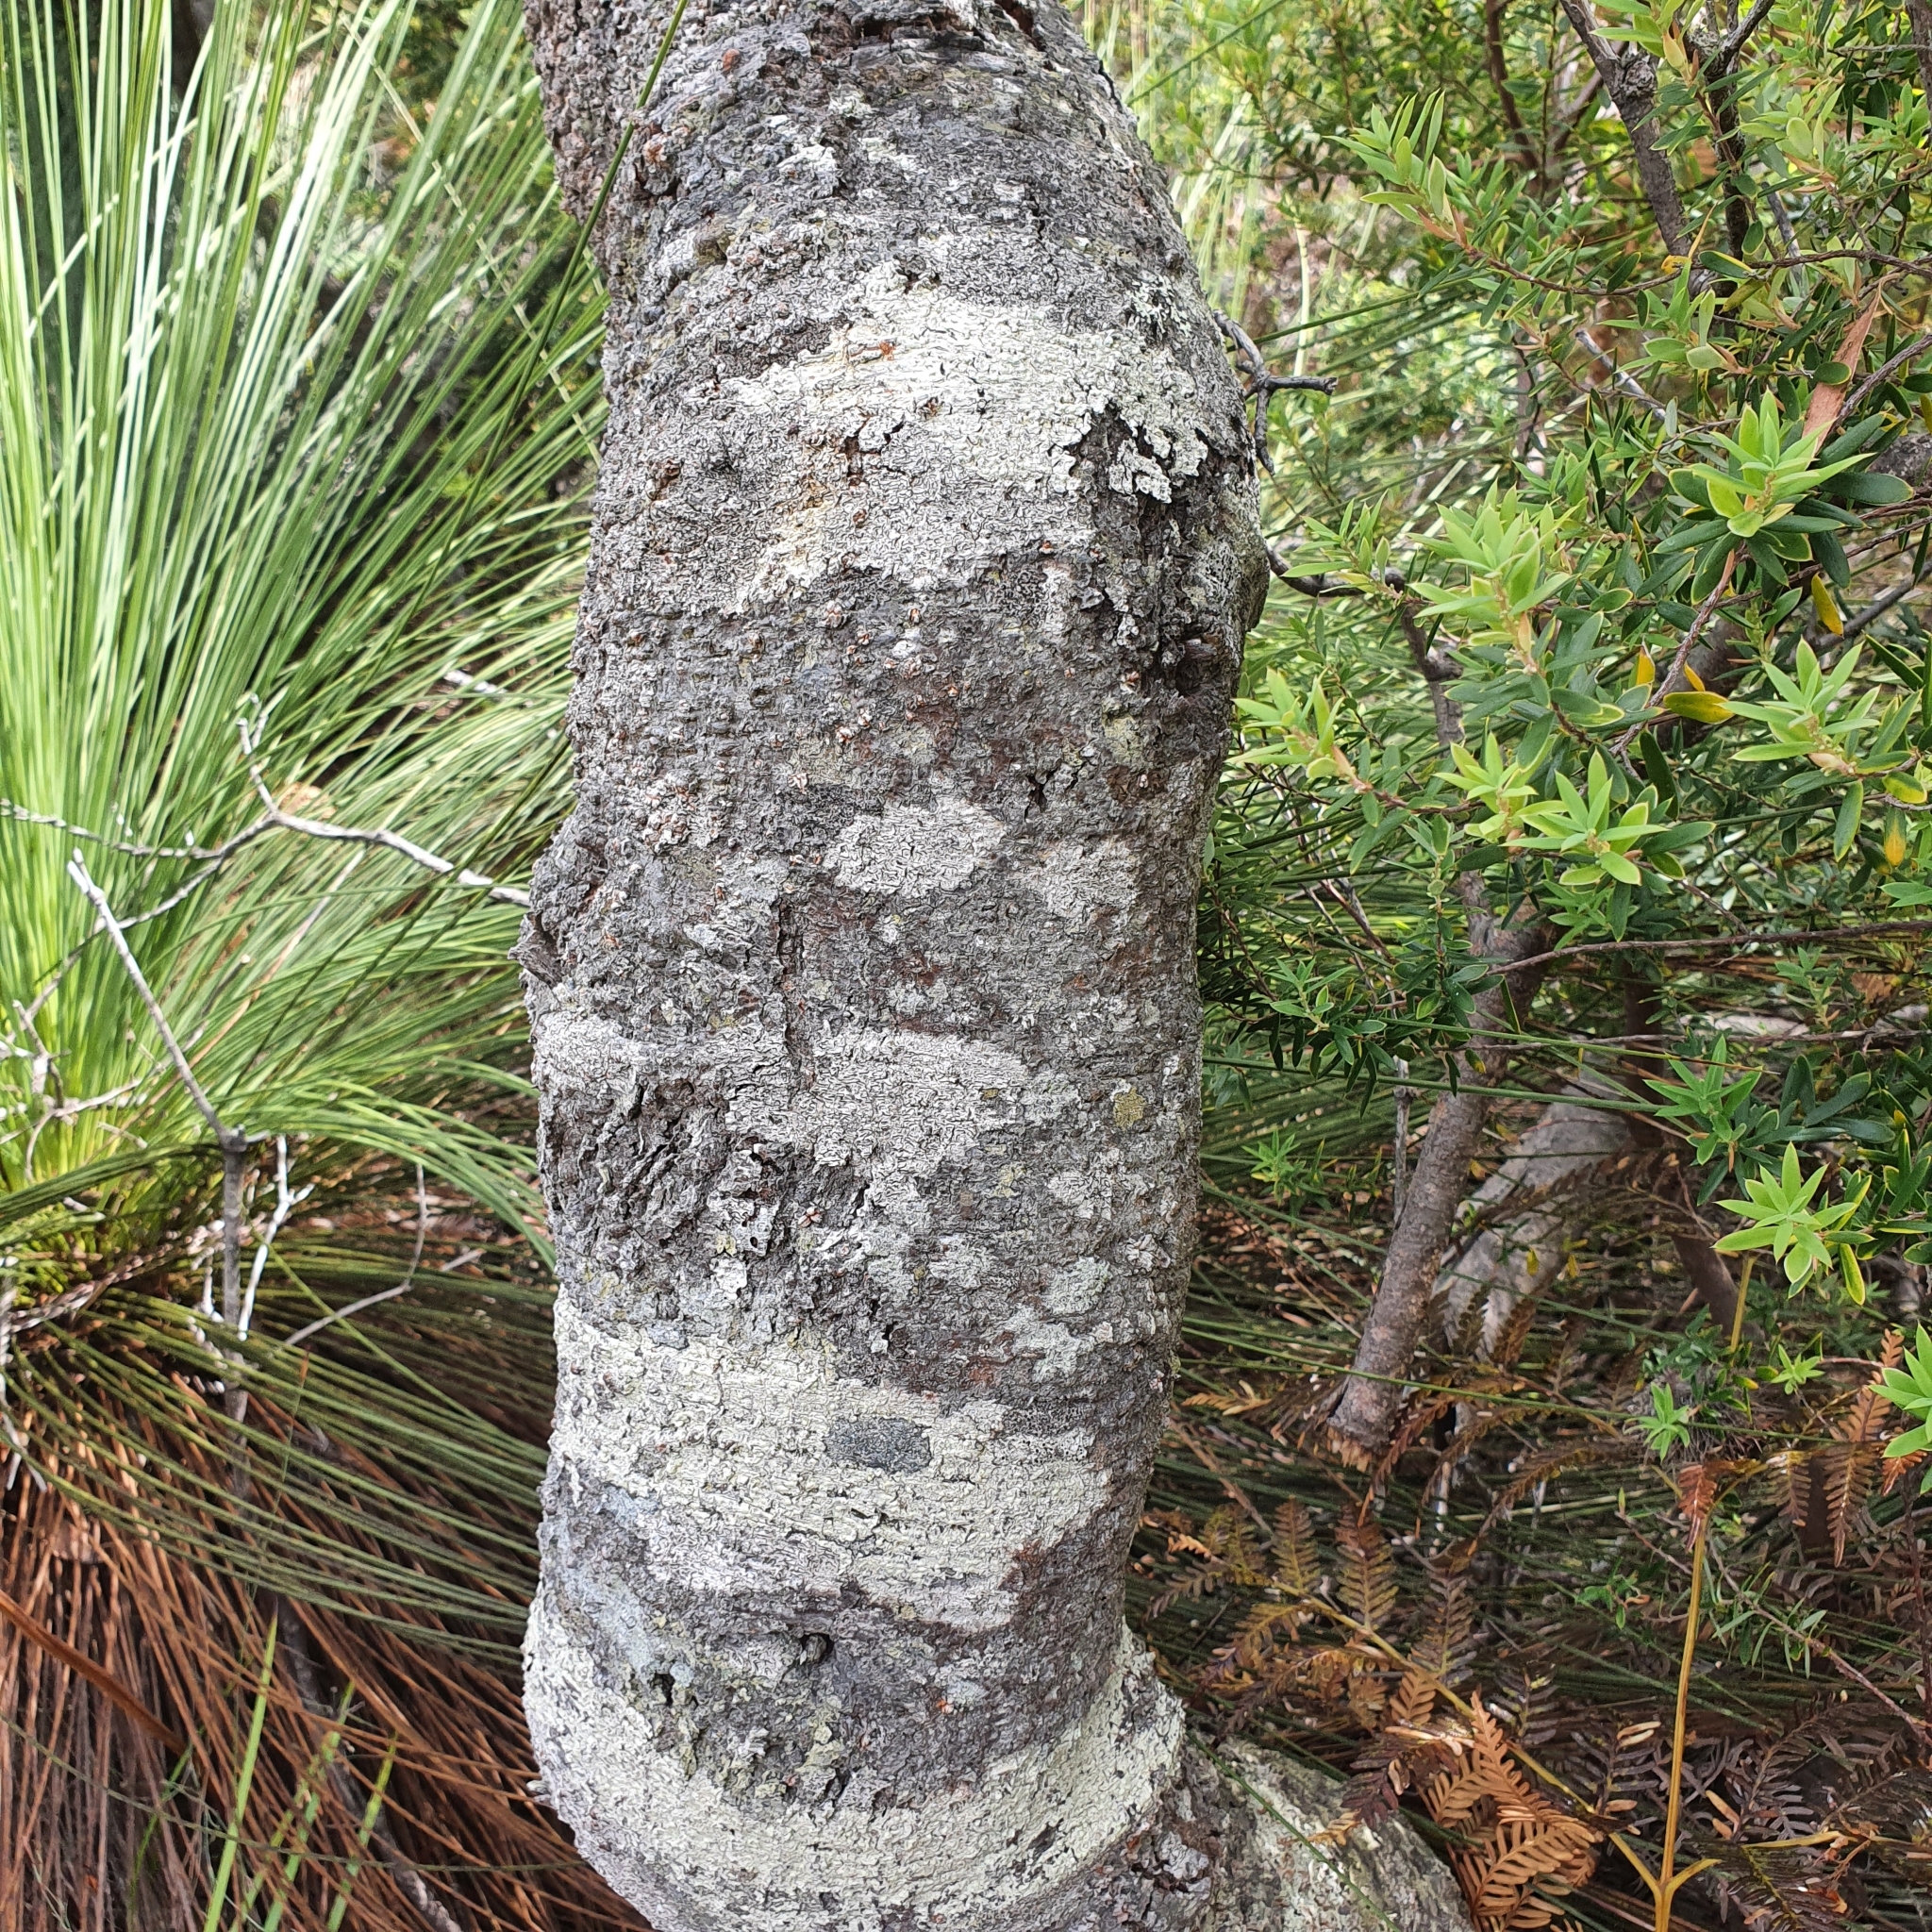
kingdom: Plantae
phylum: Tracheophyta
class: Magnoliopsida
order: Proteales
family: Proteaceae
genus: Banksia
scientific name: Banksia marginata
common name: Silver banksia
